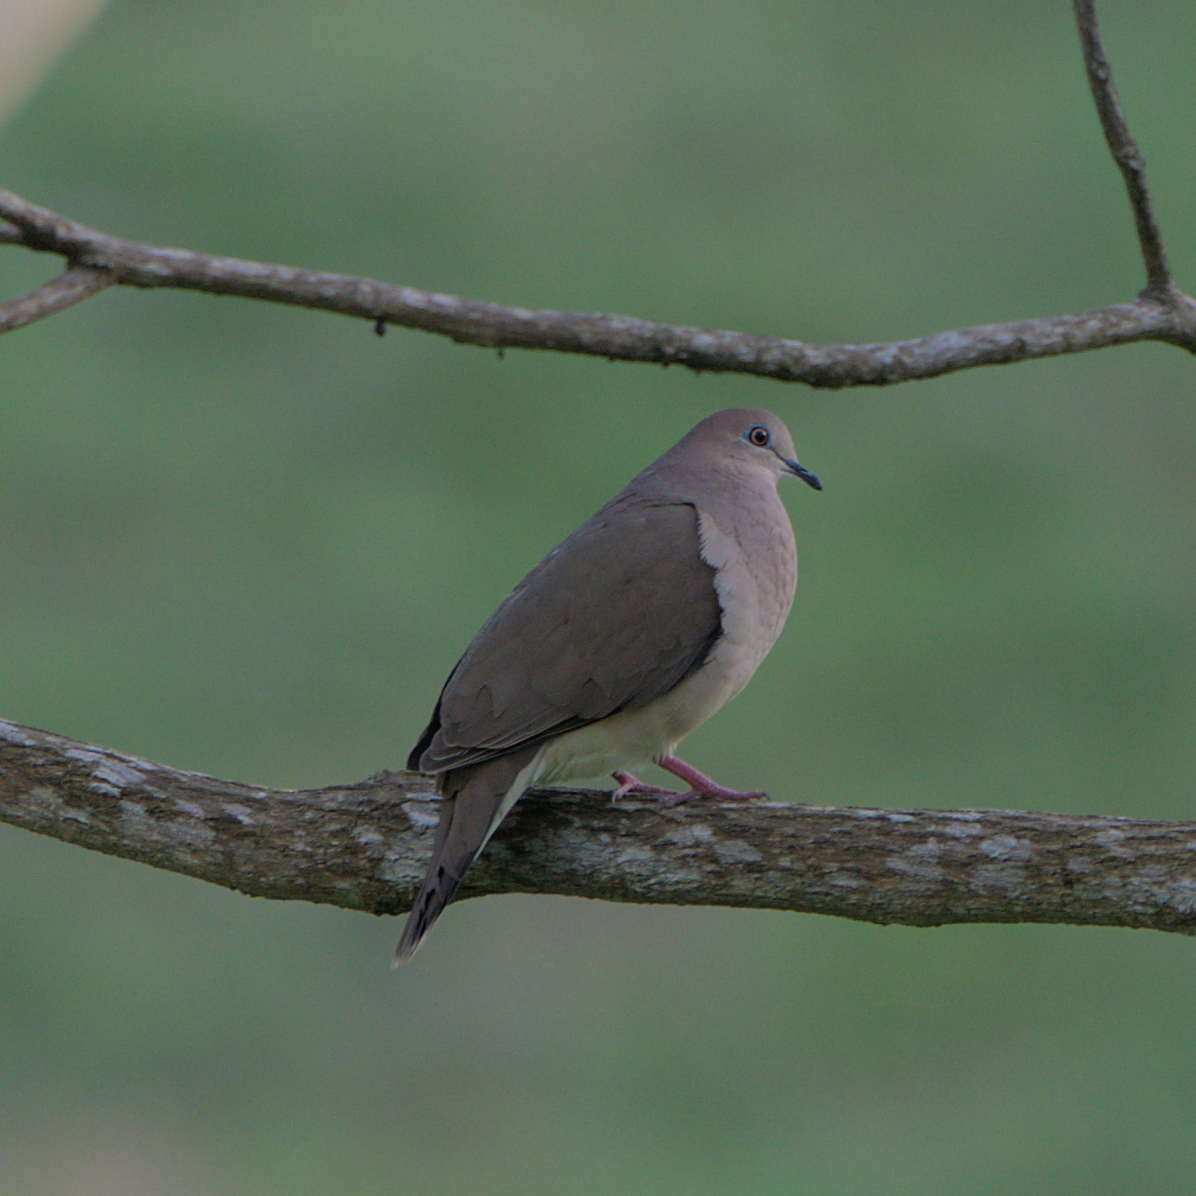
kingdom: Animalia
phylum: Chordata
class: Aves
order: Columbiformes
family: Columbidae
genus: Leptotila
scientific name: Leptotila verreauxi
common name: White-tipped dove
